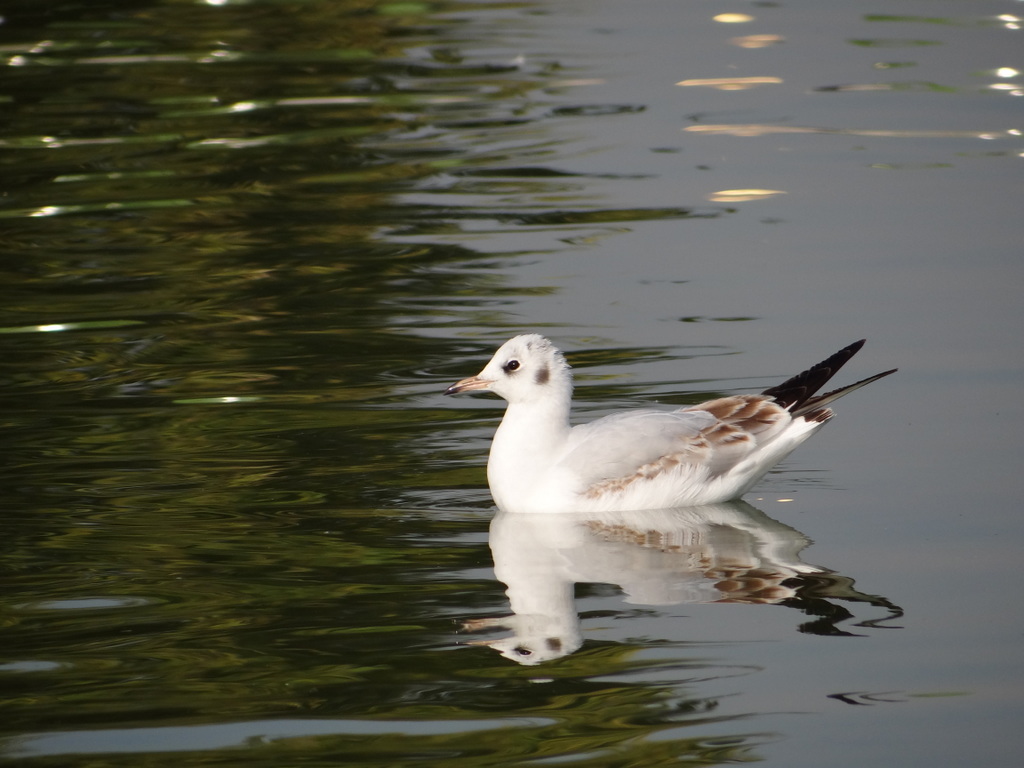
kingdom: Animalia
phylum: Chordata
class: Aves
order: Charadriiformes
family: Laridae
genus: Chroicocephalus
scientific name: Chroicocephalus ridibundus
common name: Black-headed gull
